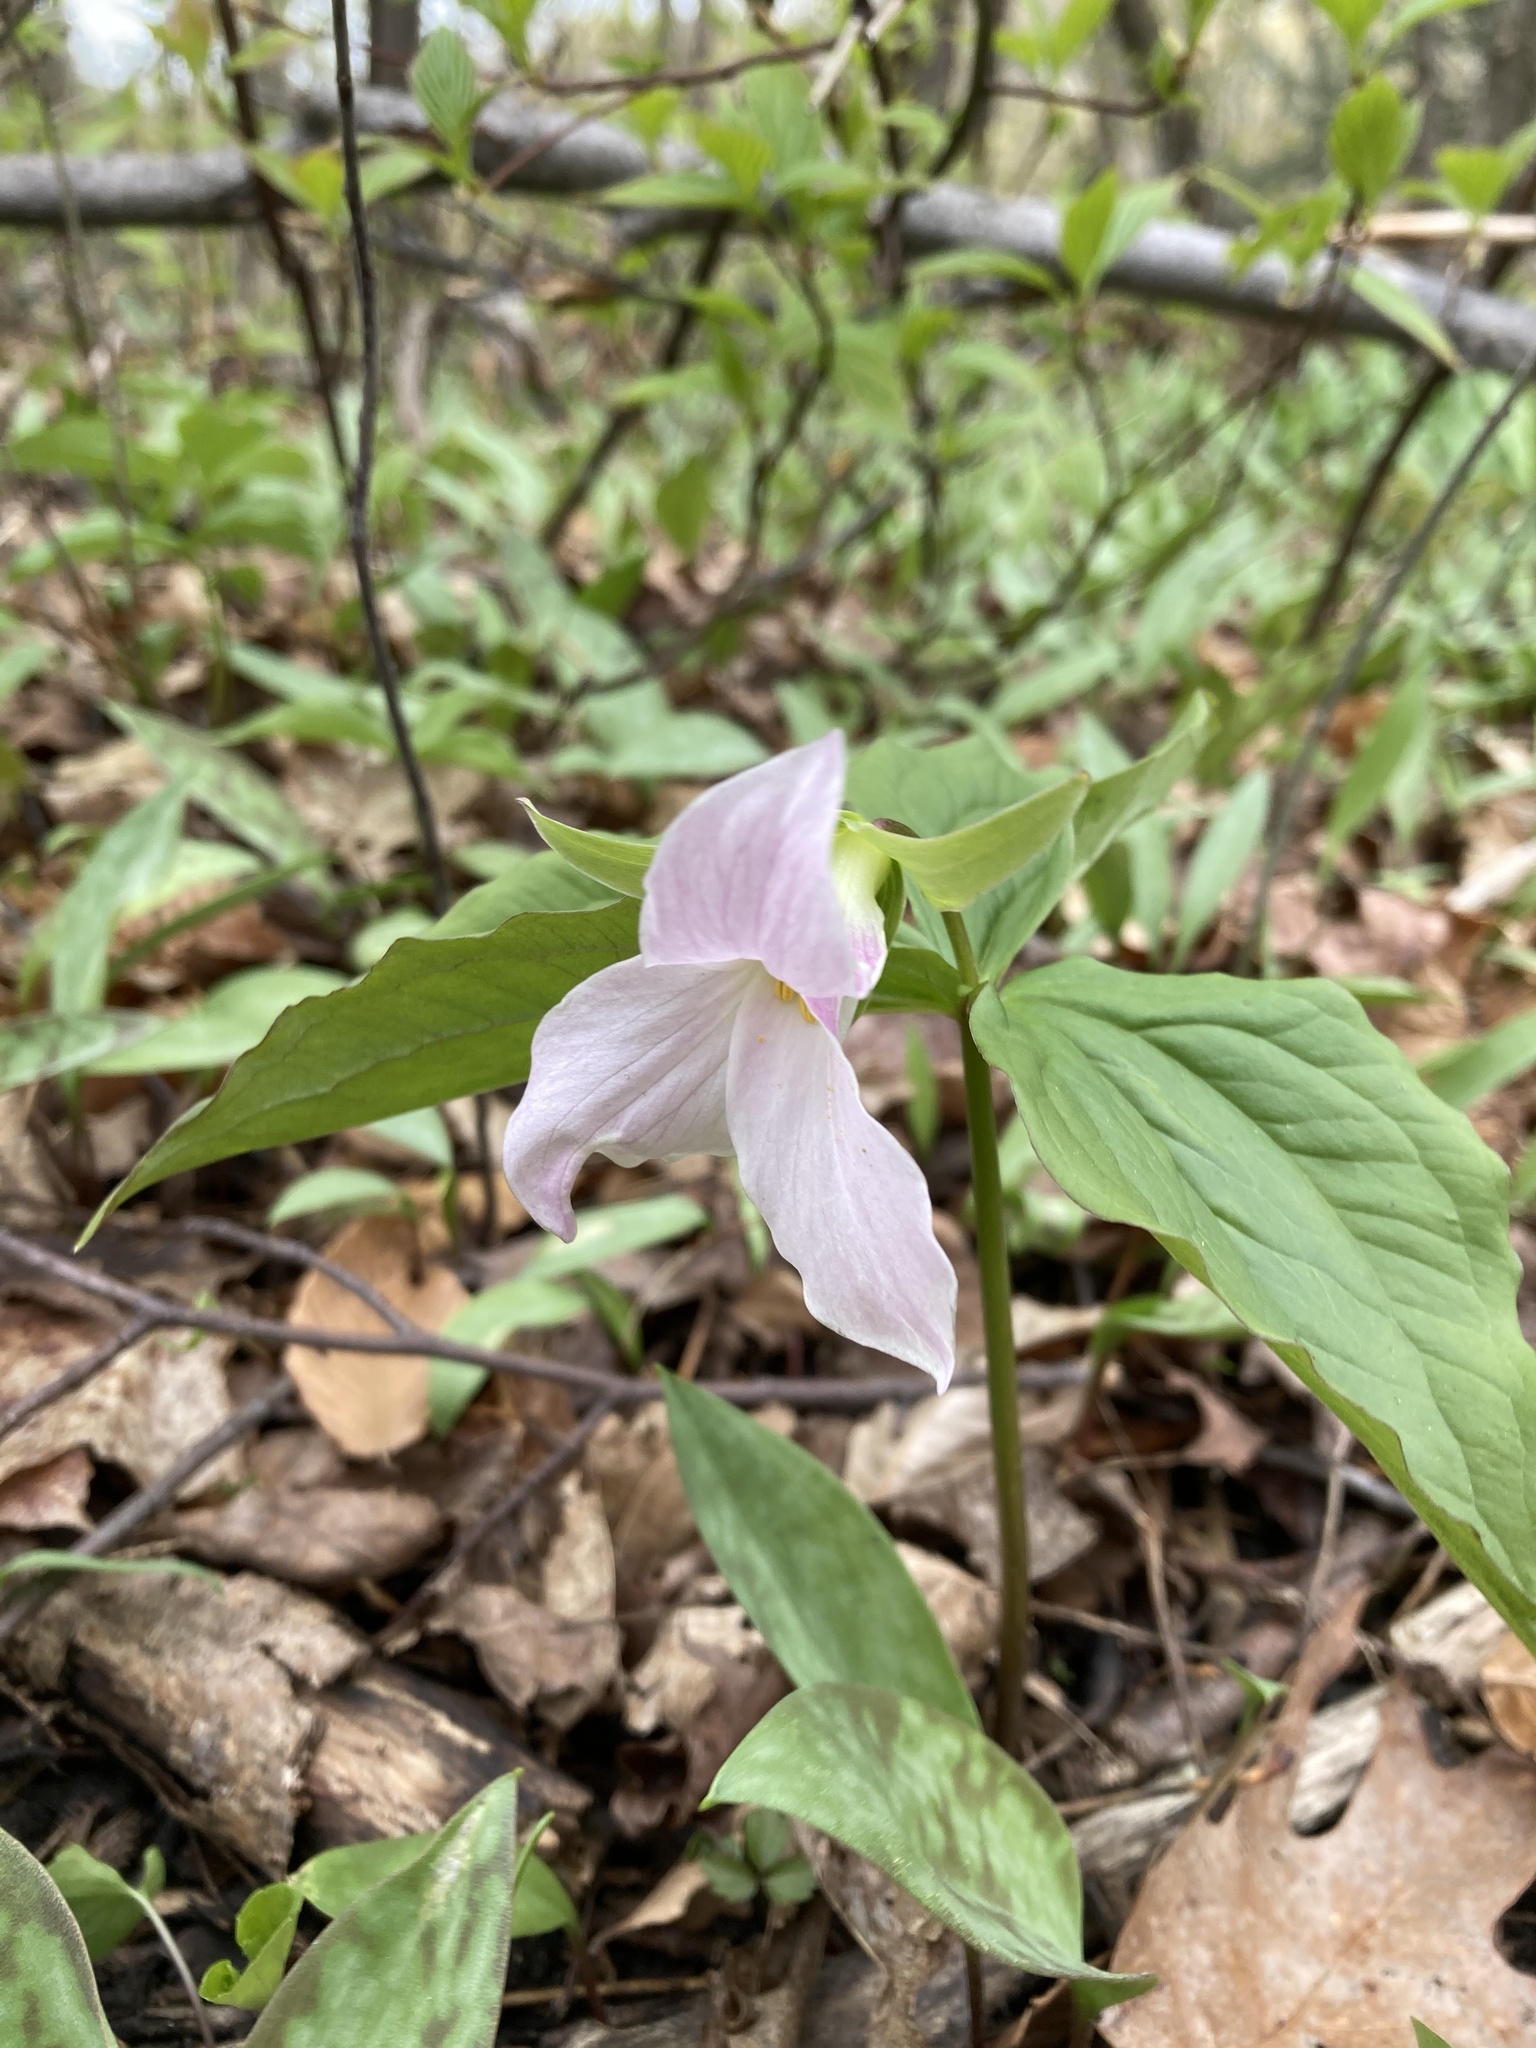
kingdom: Plantae
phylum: Tracheophyta
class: Liliopsida
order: Liliales
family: Melanthiaceae
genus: Trillium
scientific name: Trillium grandiflorum
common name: Great white trillium
